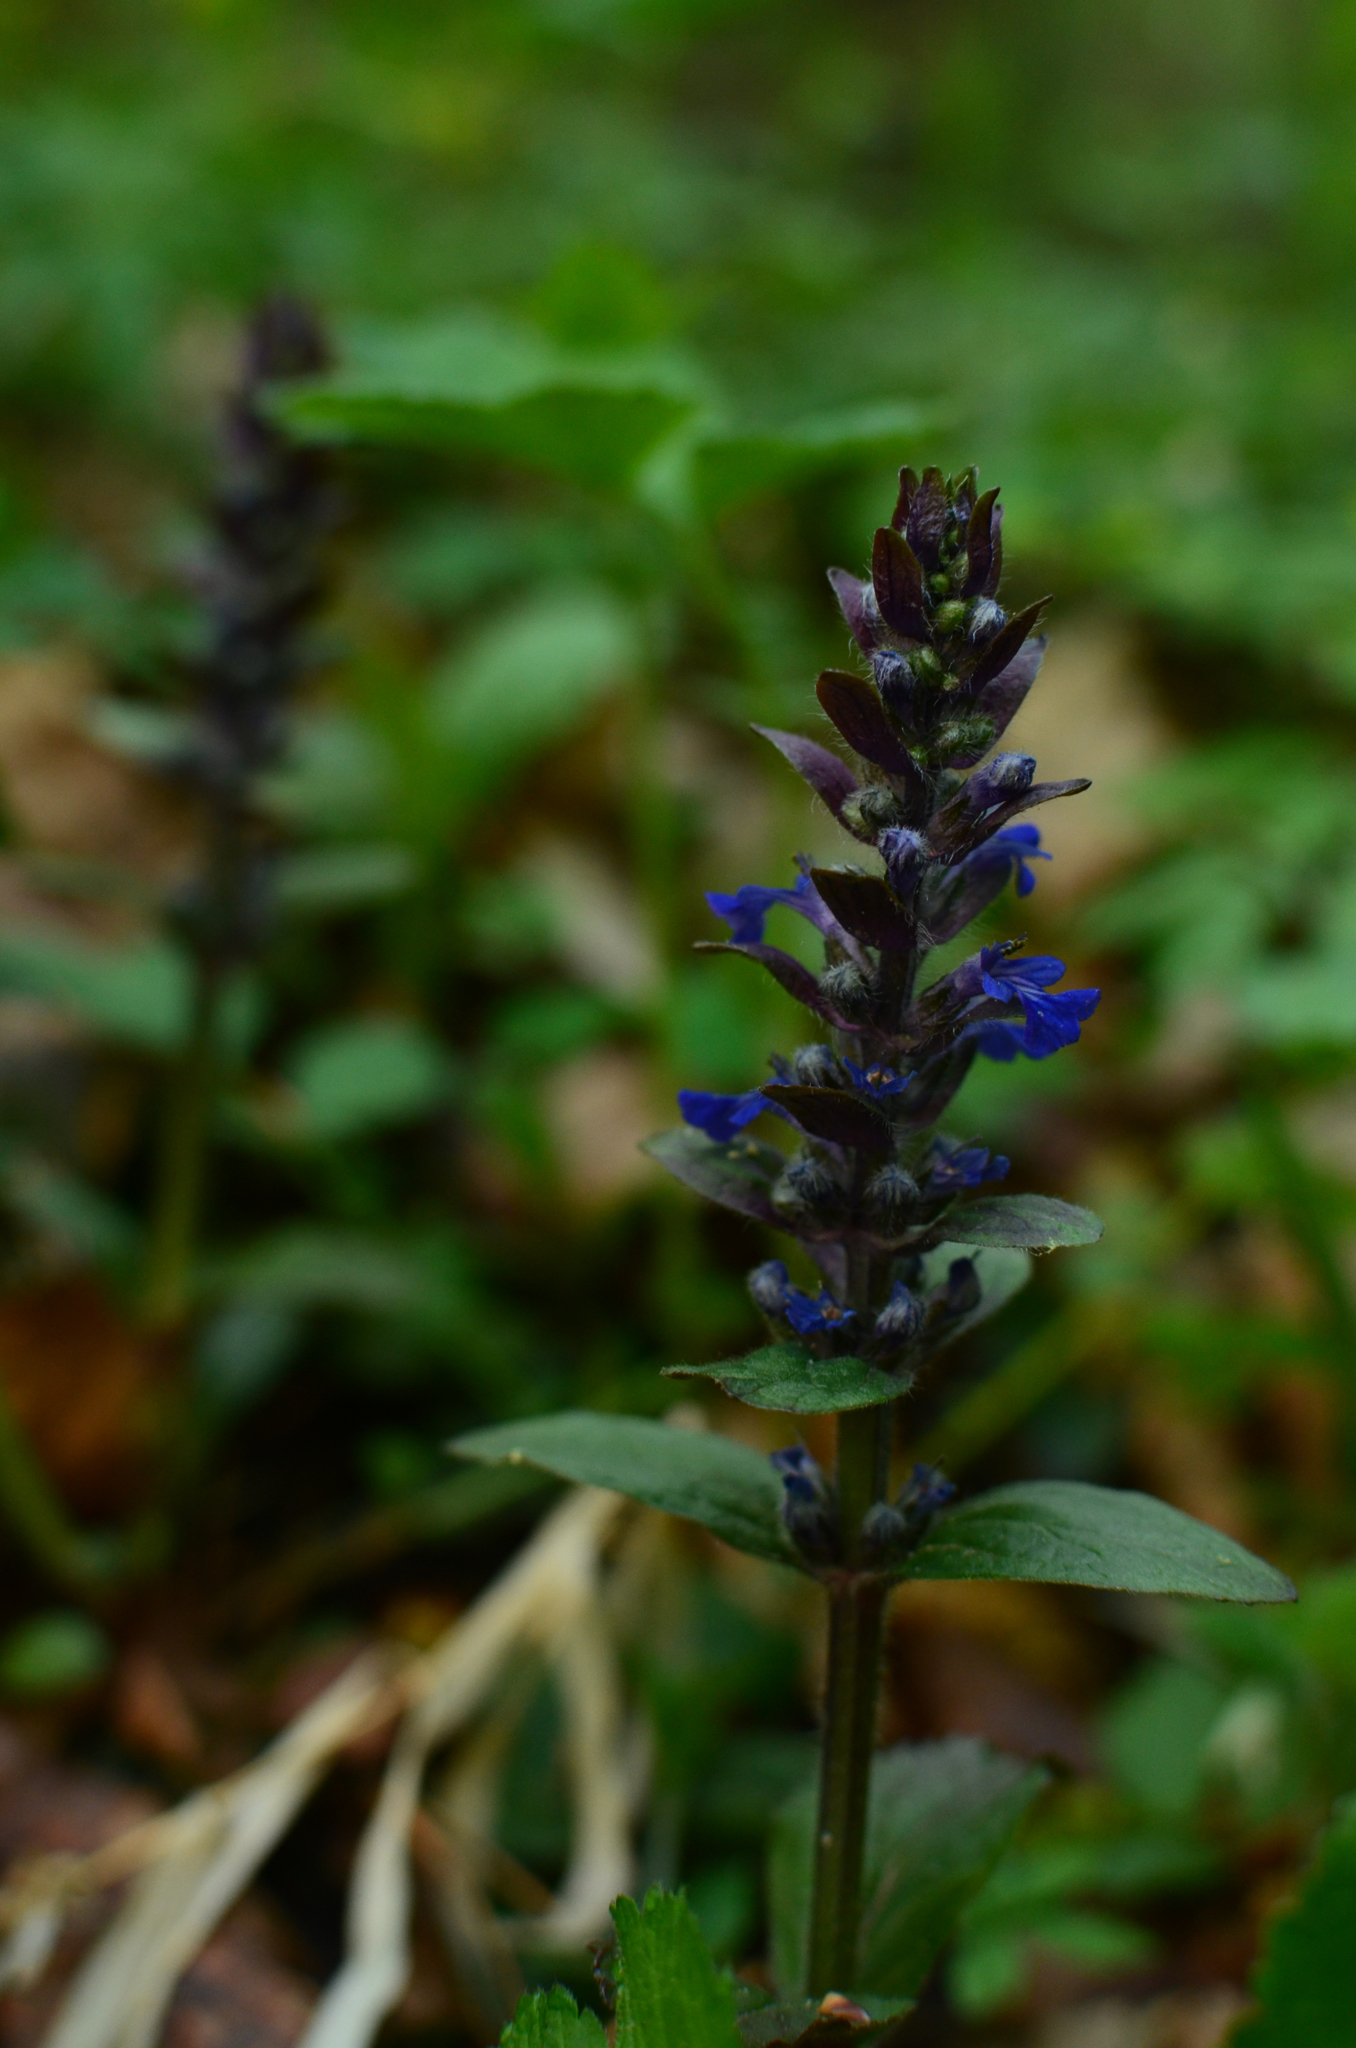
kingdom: Plantae
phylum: Tracheophyta
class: Magnoliopsida
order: Lamiales
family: Lamiaceae
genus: Ajuga
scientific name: Ajuga reptans
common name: Bugle
